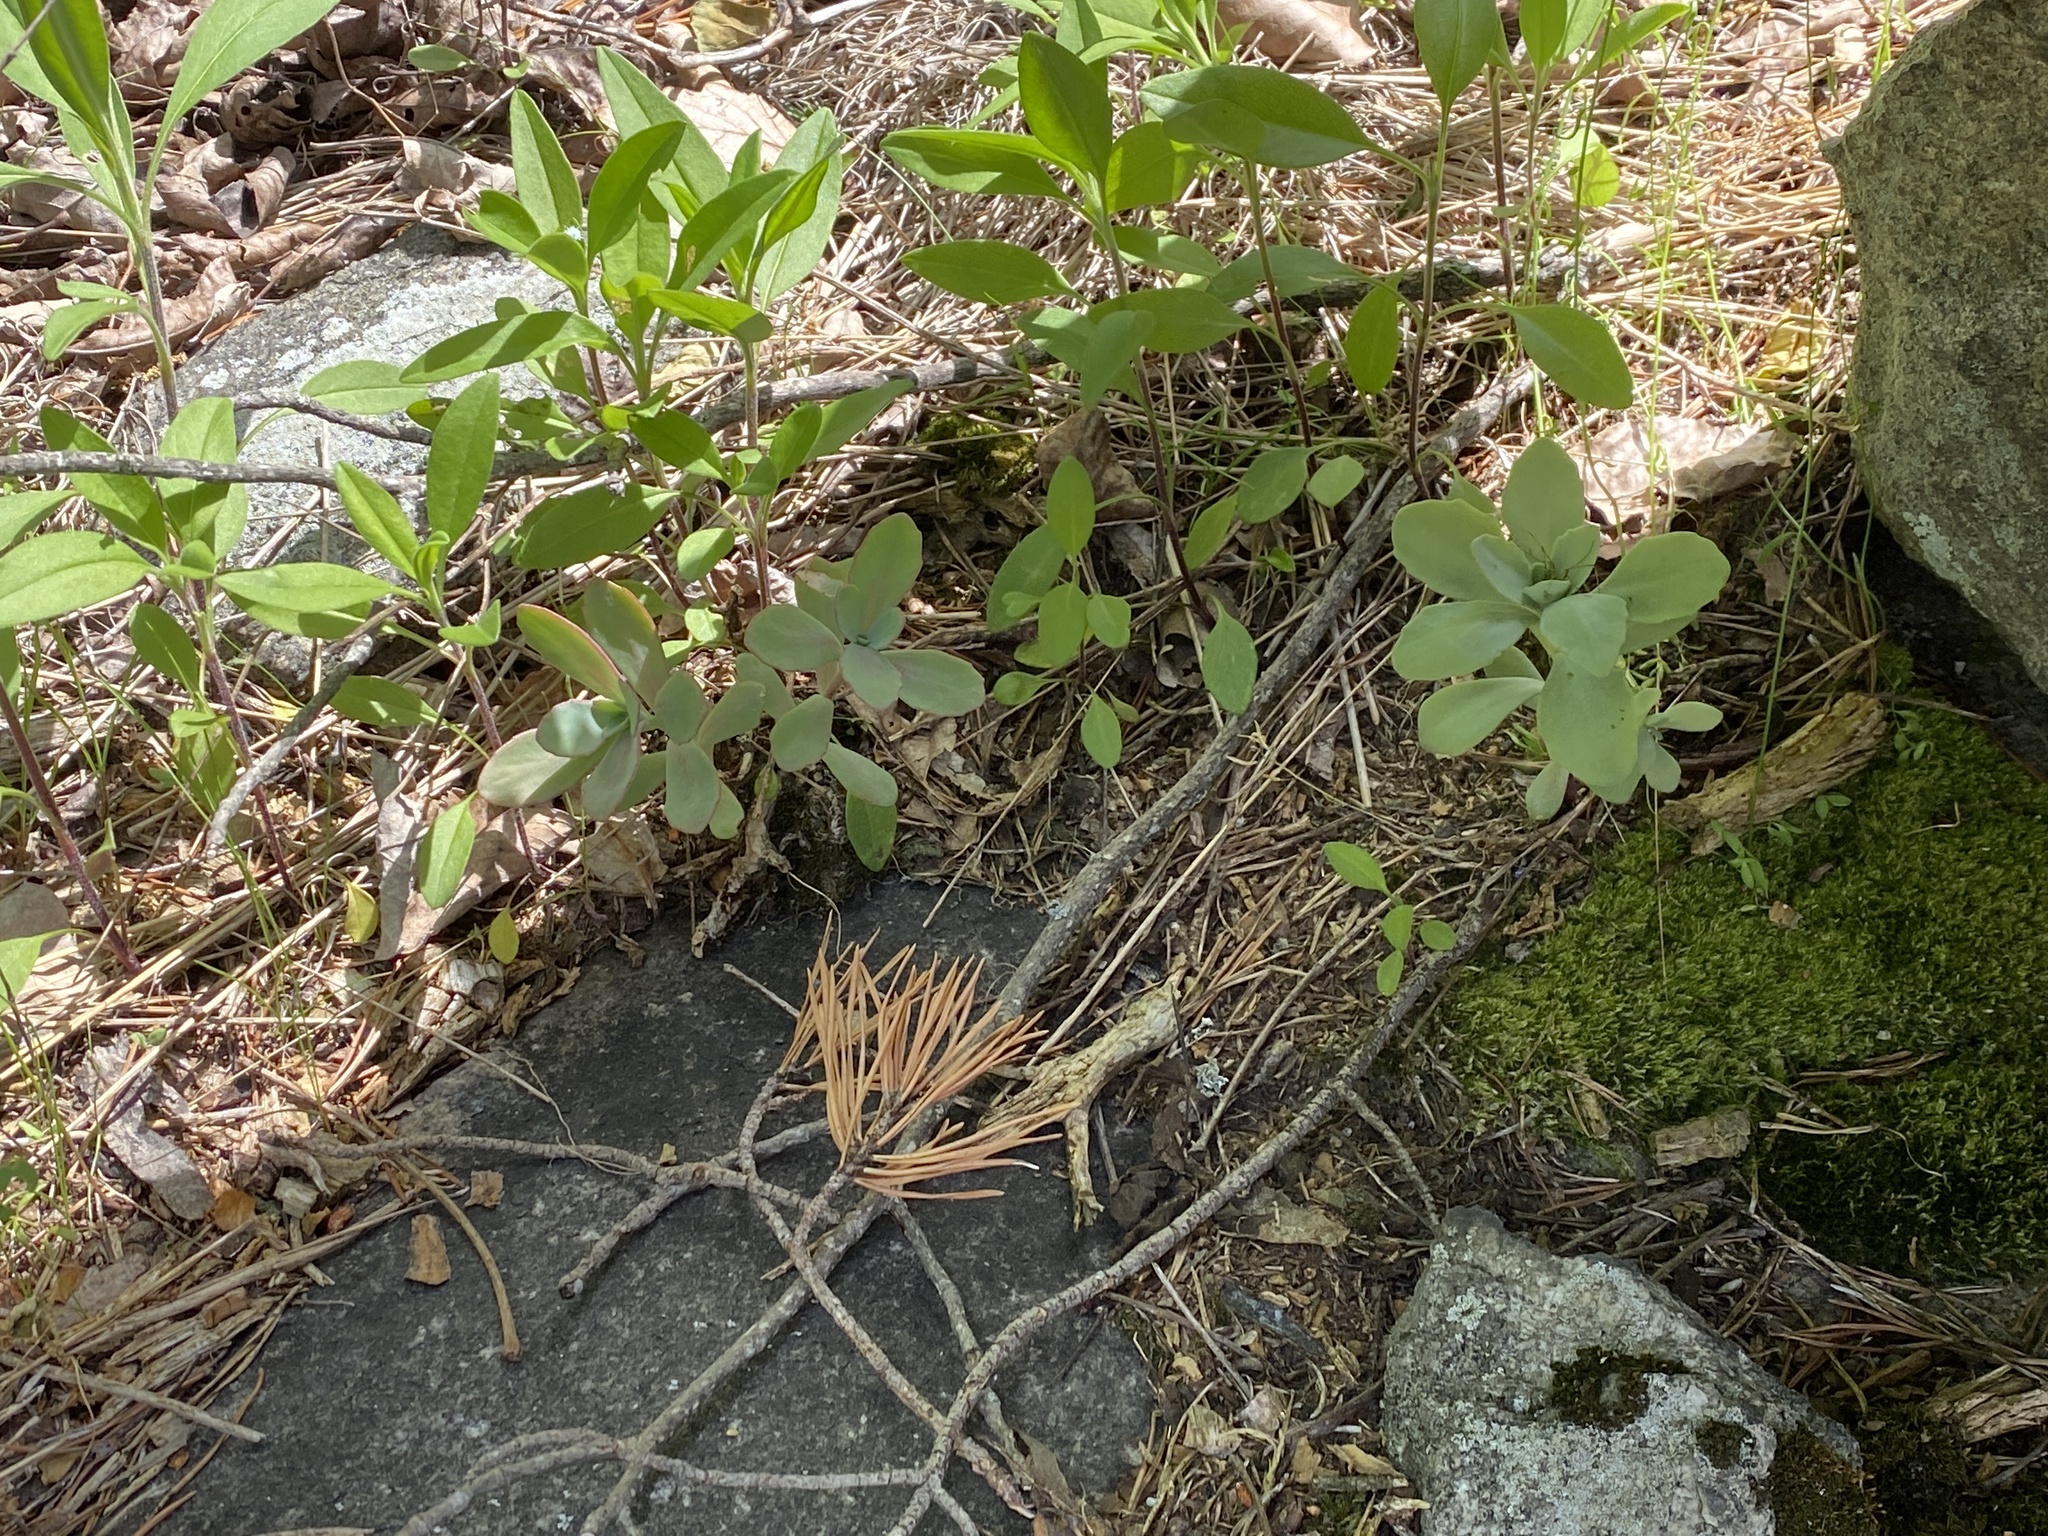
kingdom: Plantae
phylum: Tracheophyta
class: Magnoliopsida
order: Saxifragales
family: Crassulaceae
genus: Hylotelephium
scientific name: Hylotelephium telephioides
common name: Allegheny stonecrop
